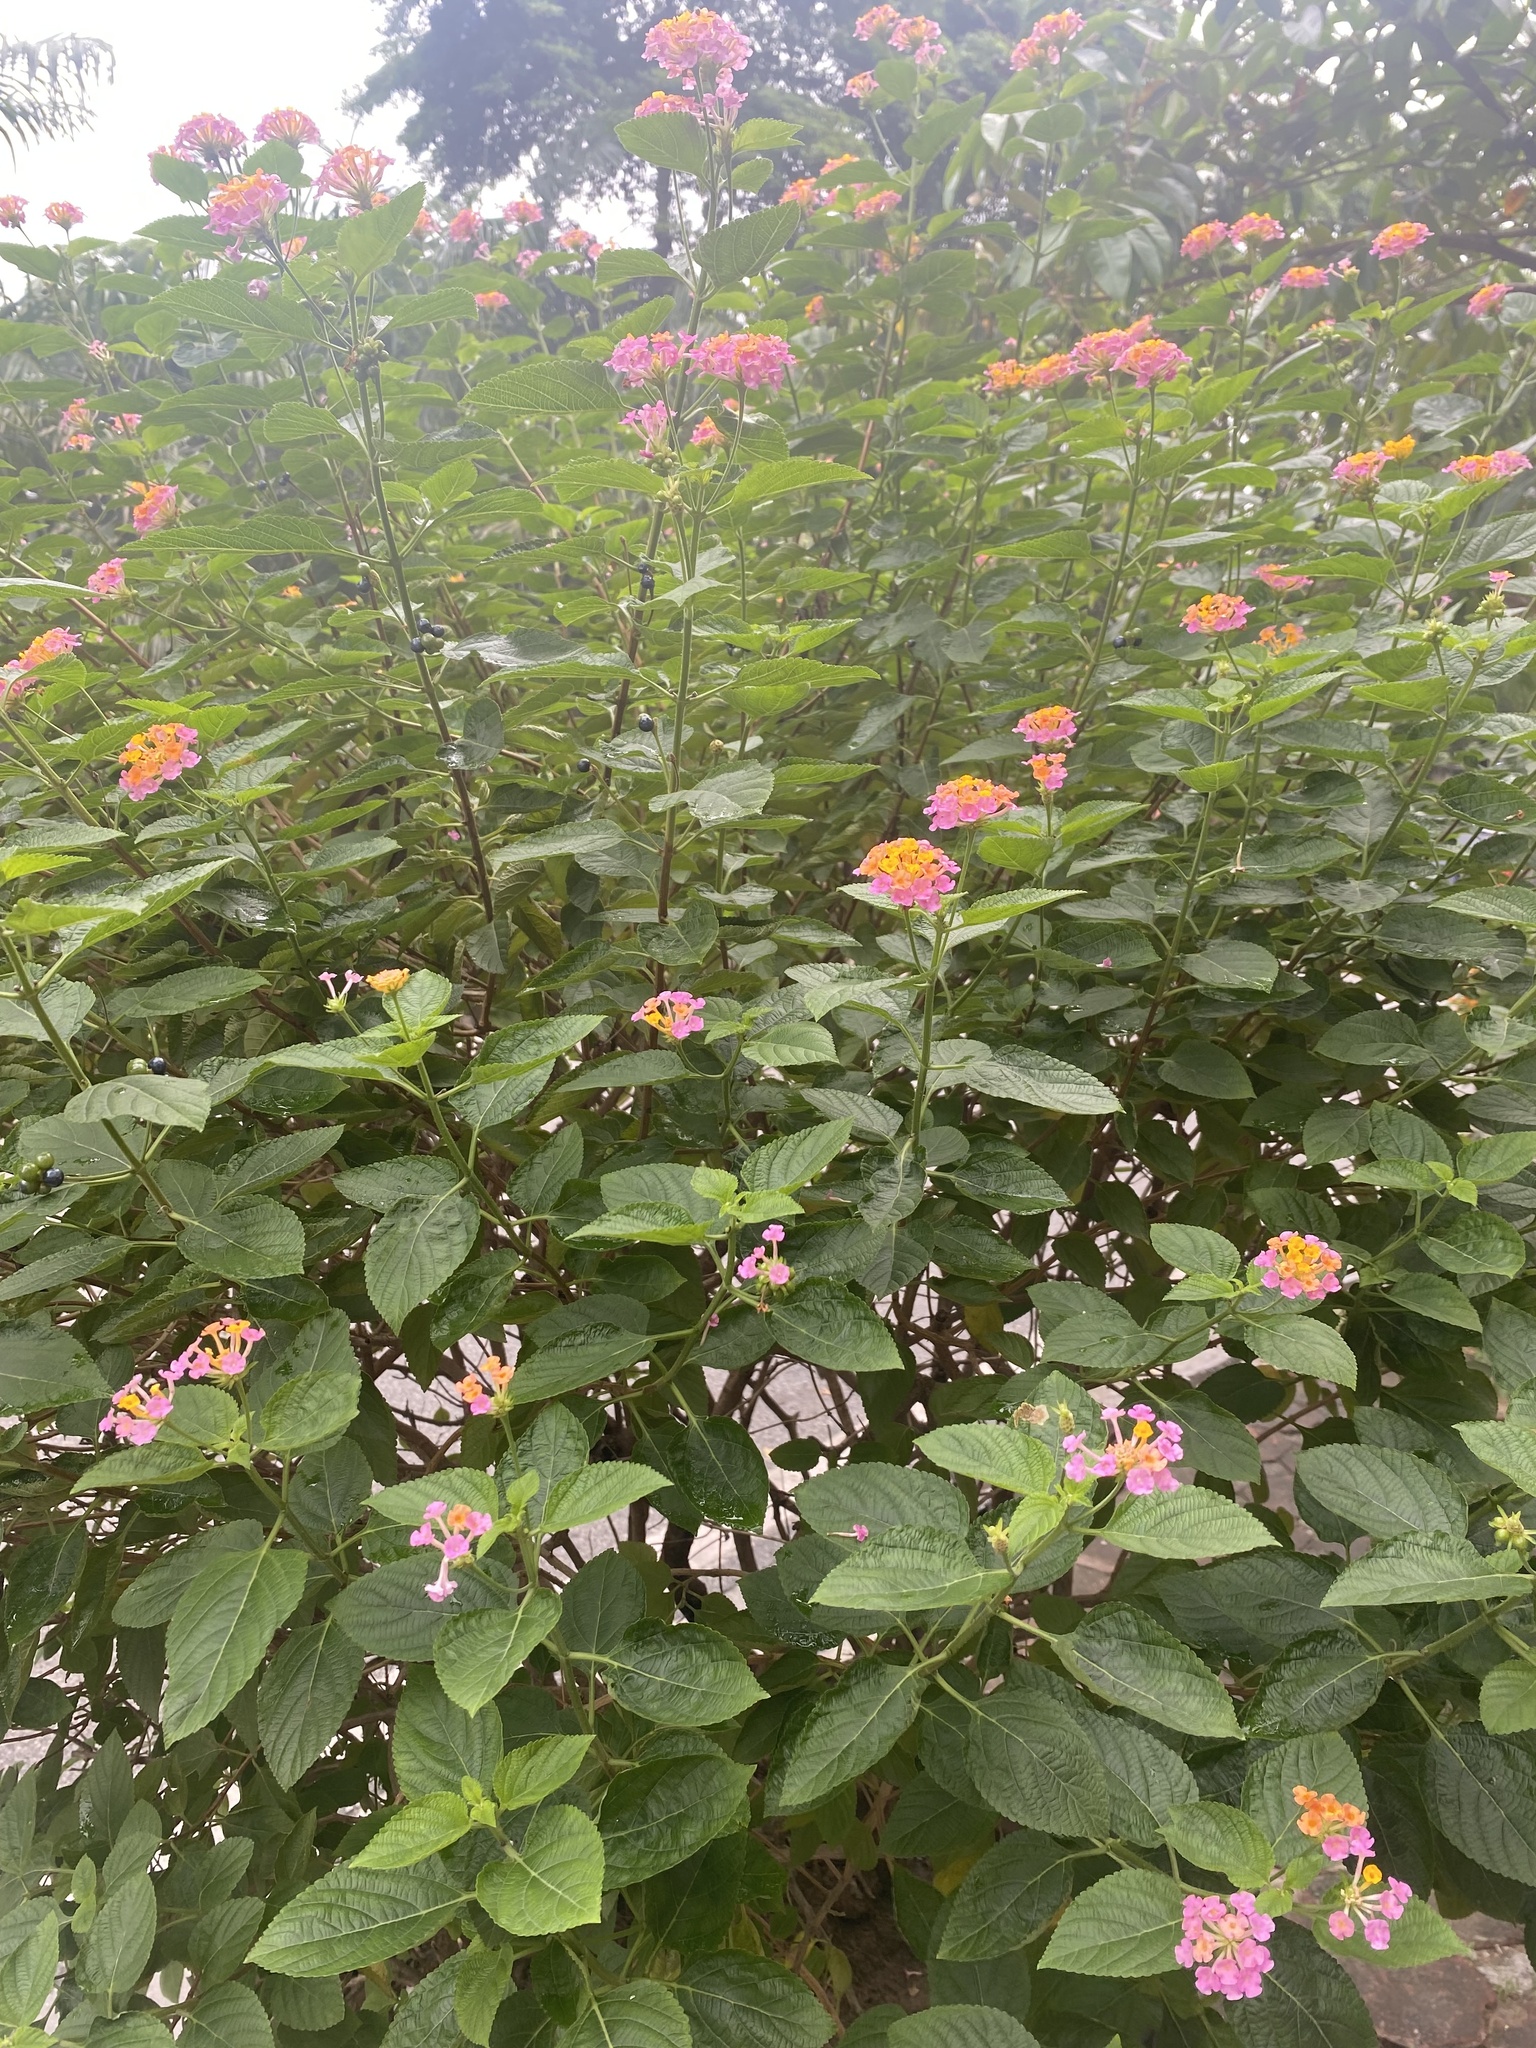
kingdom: Plantae
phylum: Tracheophyta
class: Magnoliopsida
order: Lamiales
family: Verbenaceae
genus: Lantana
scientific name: Lantana camara
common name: Lantana
